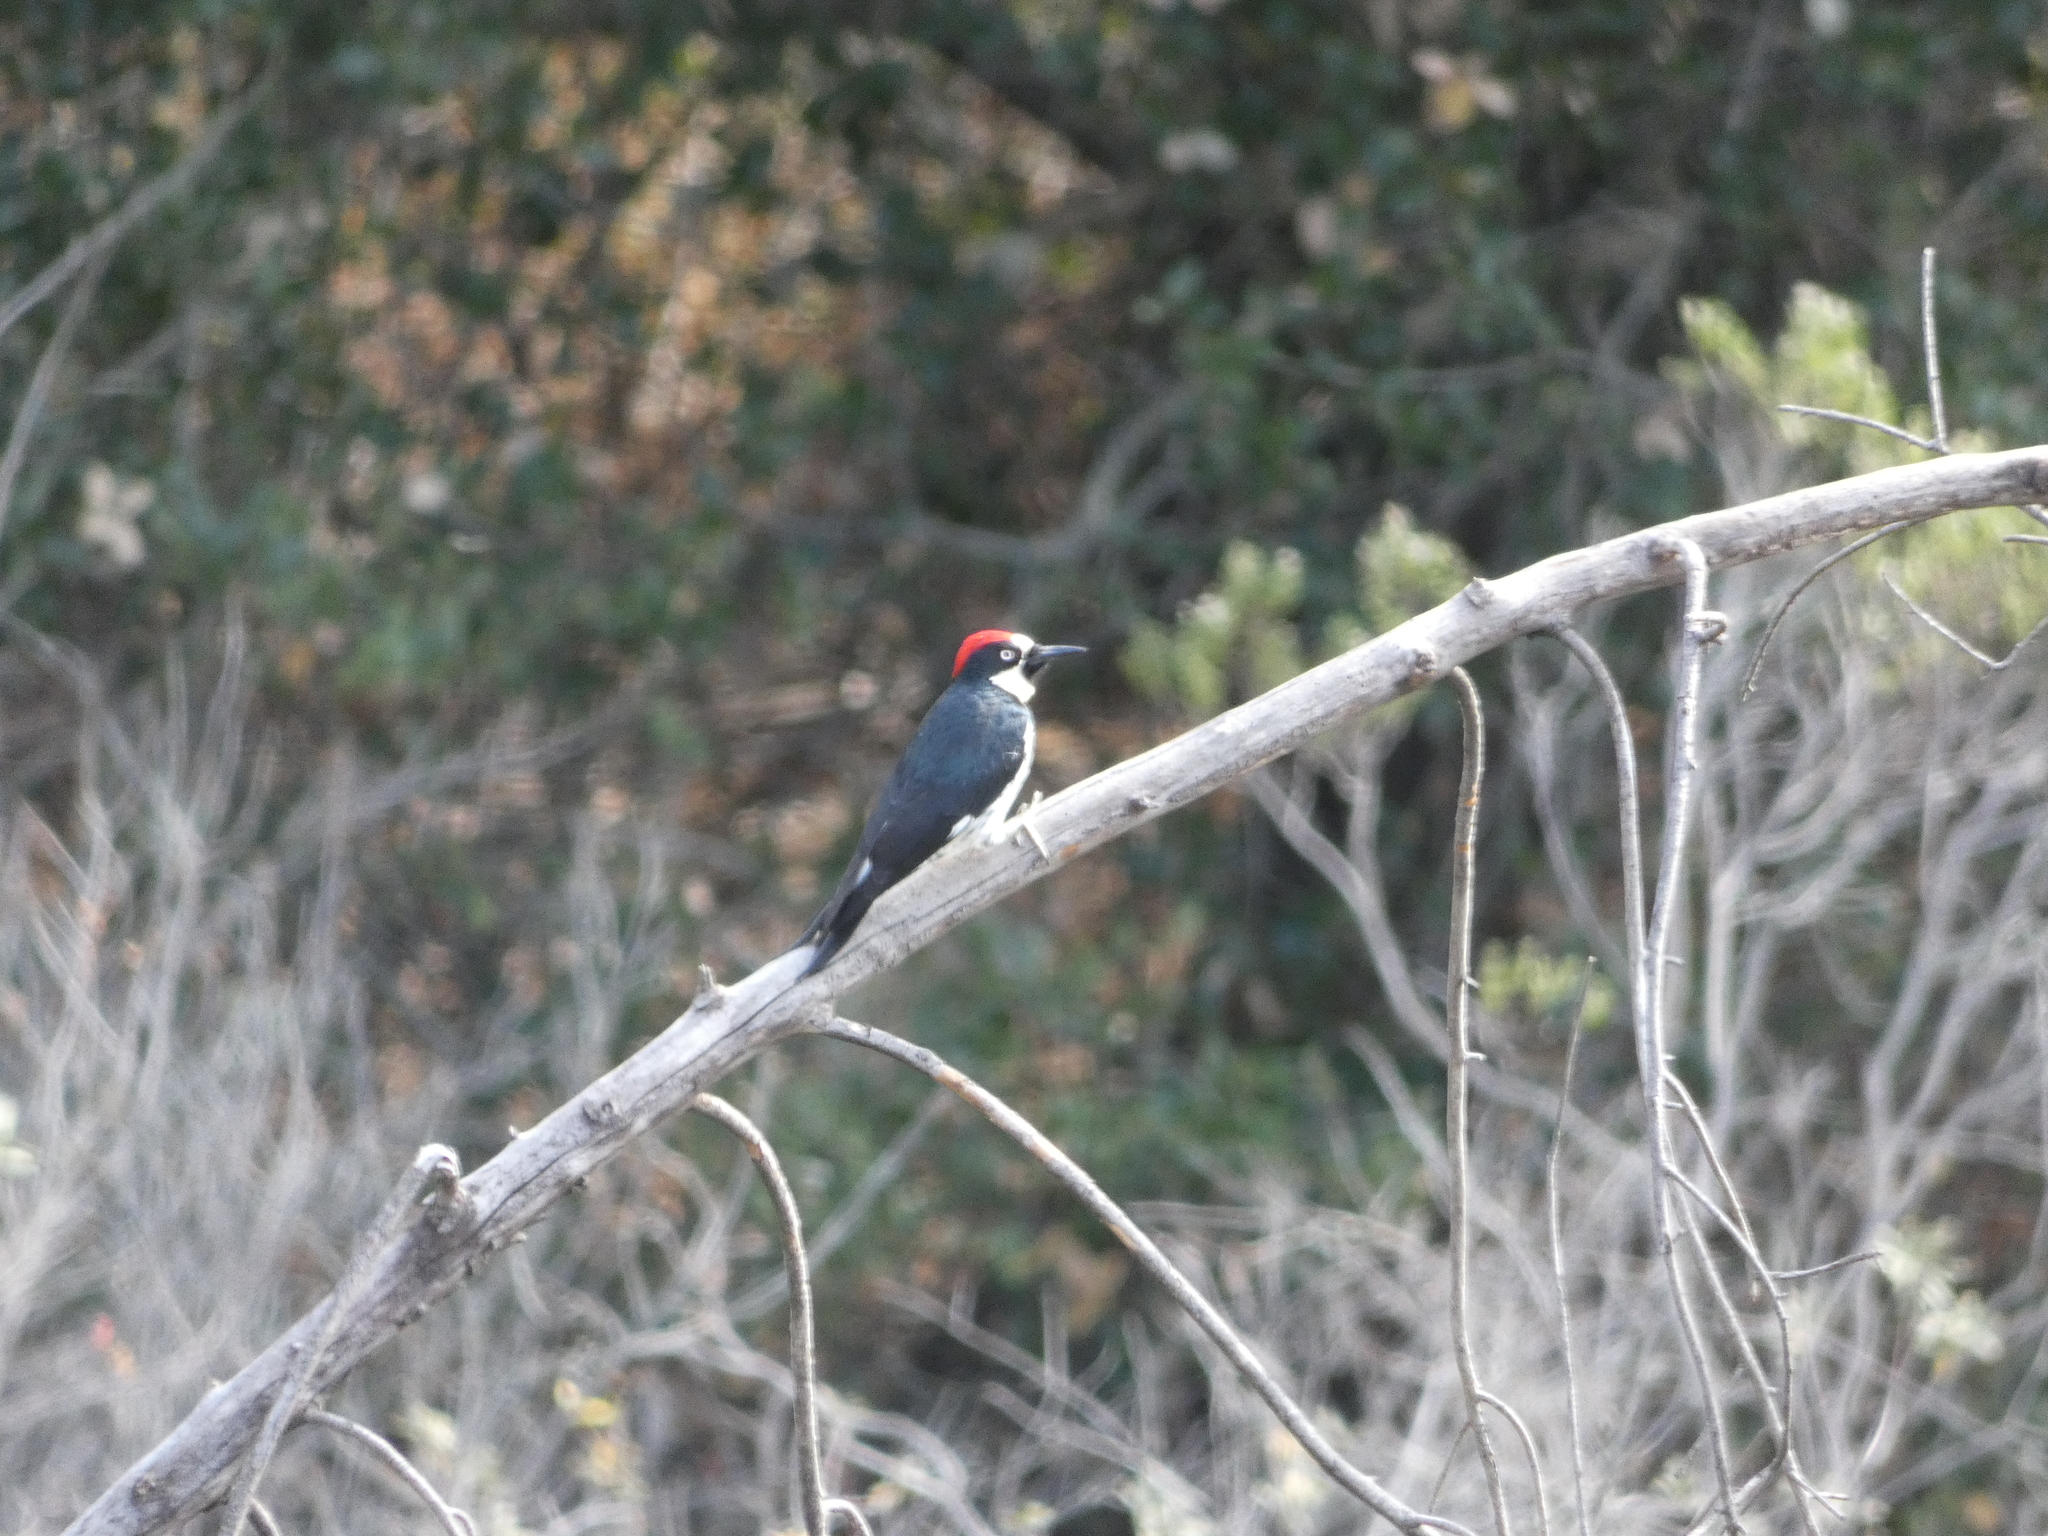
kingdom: Animalia
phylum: Chordata
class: Aves
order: Piciformes
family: Picidae
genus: Melanerpes
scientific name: Melanerpes formicivorus
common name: Acorn woodpecker
